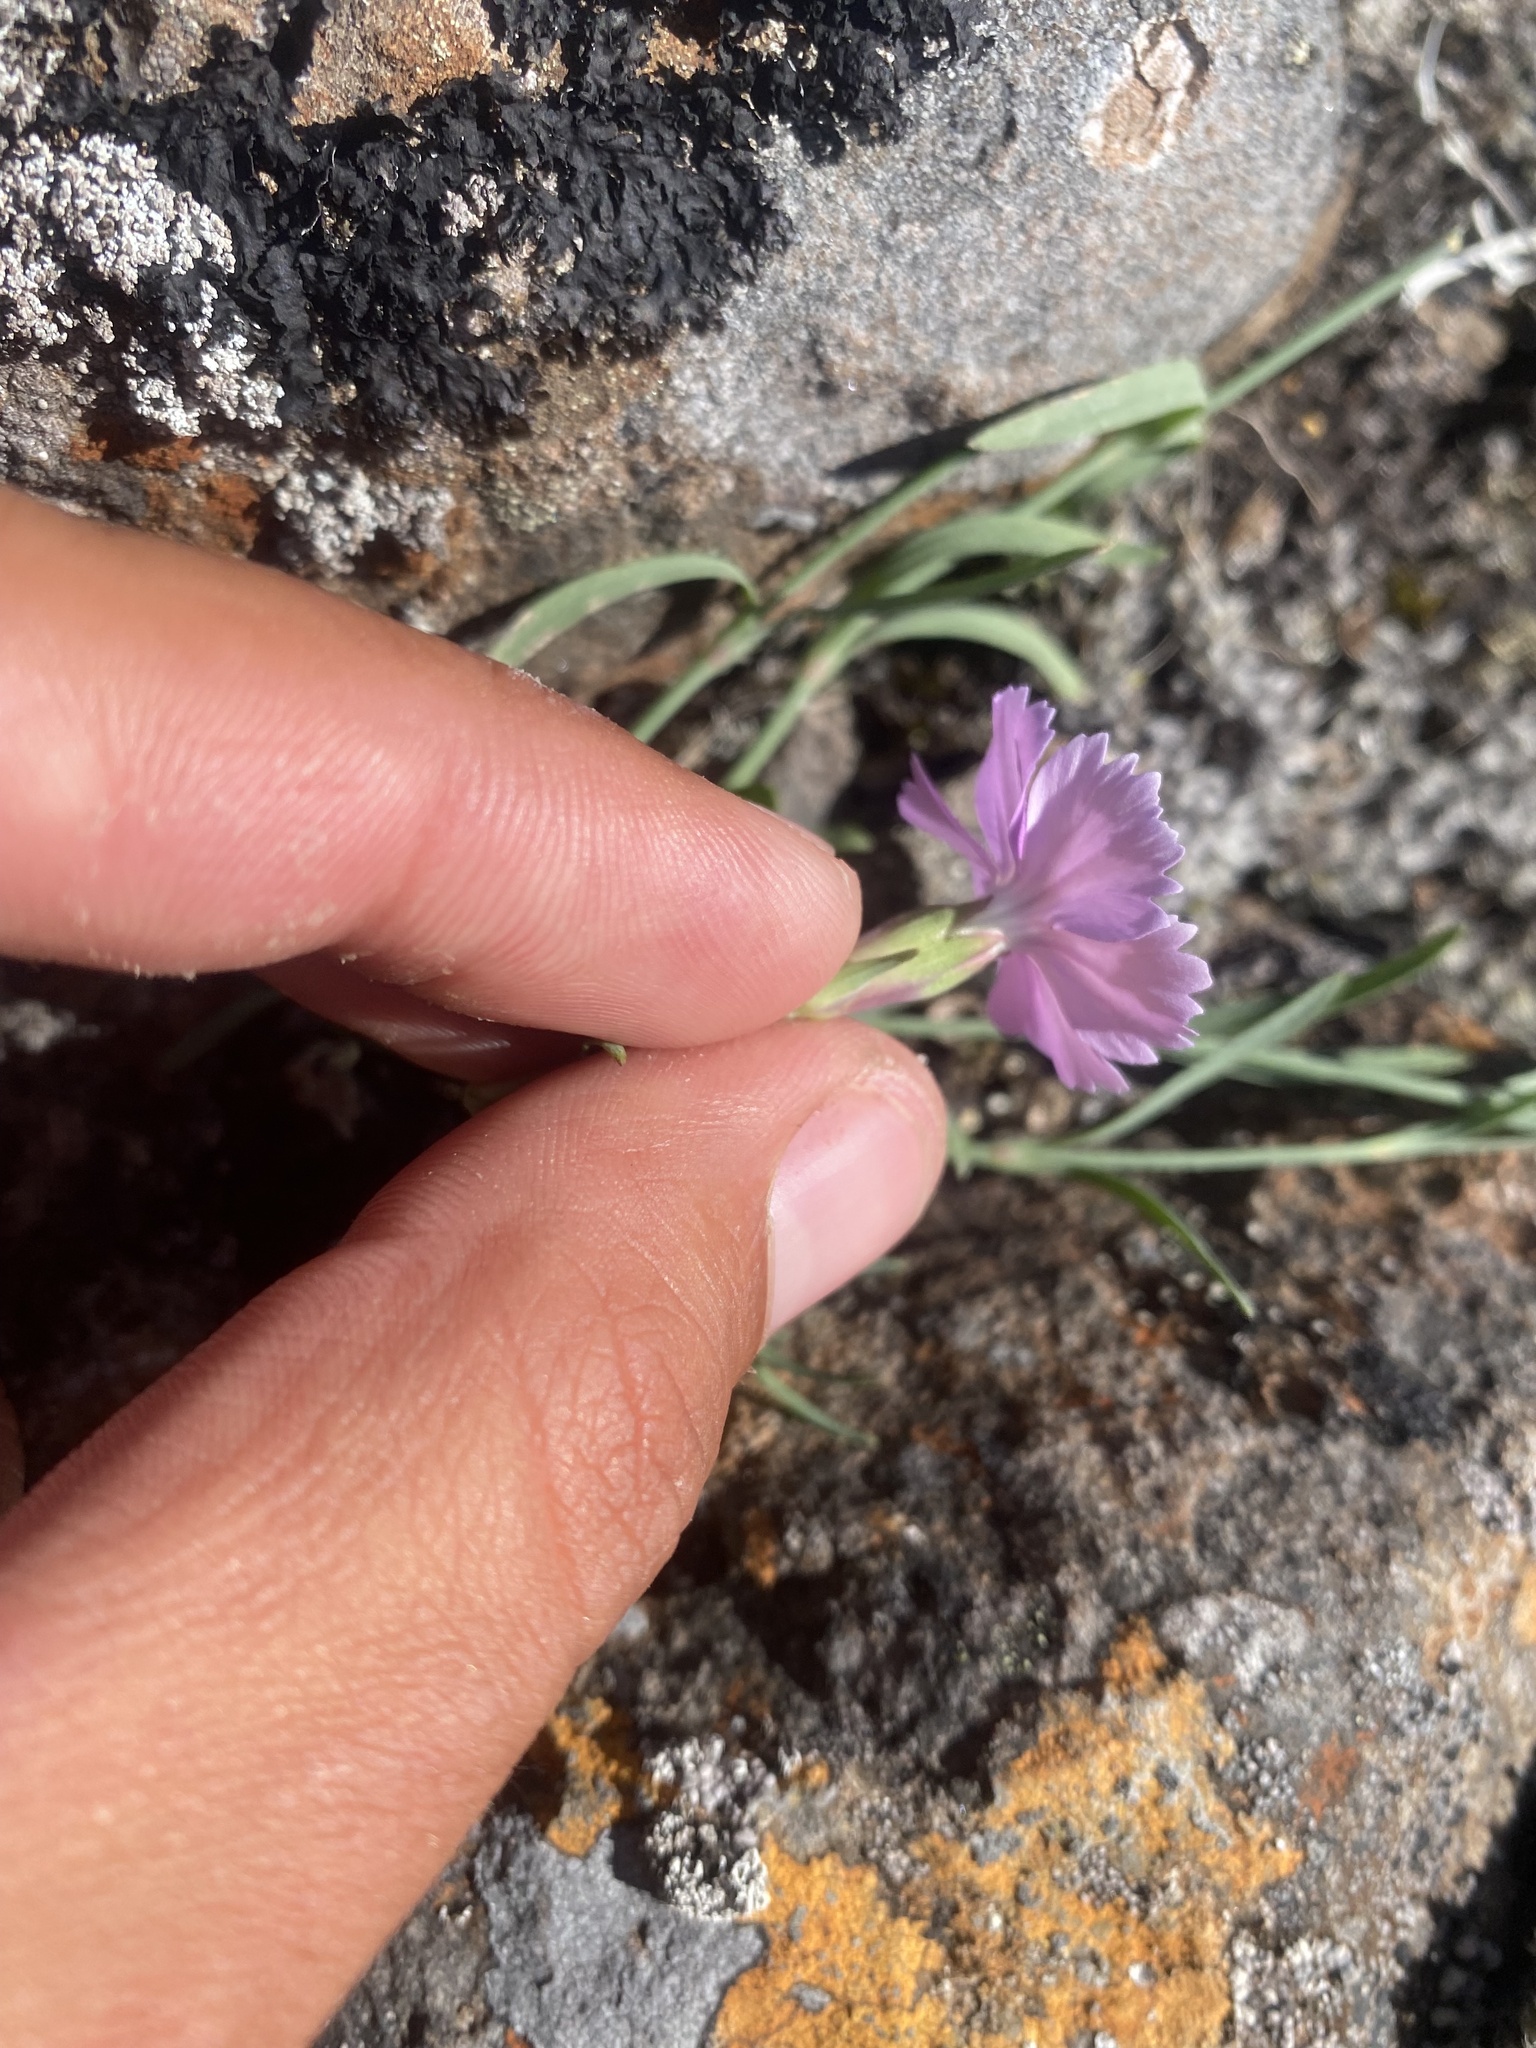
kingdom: Plantae
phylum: Tracheophyta
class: Magnoliopsida
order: Caryophyllales
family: Caryophyllaceae
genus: Dianthus
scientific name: Dianthus repens
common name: Northern pink
